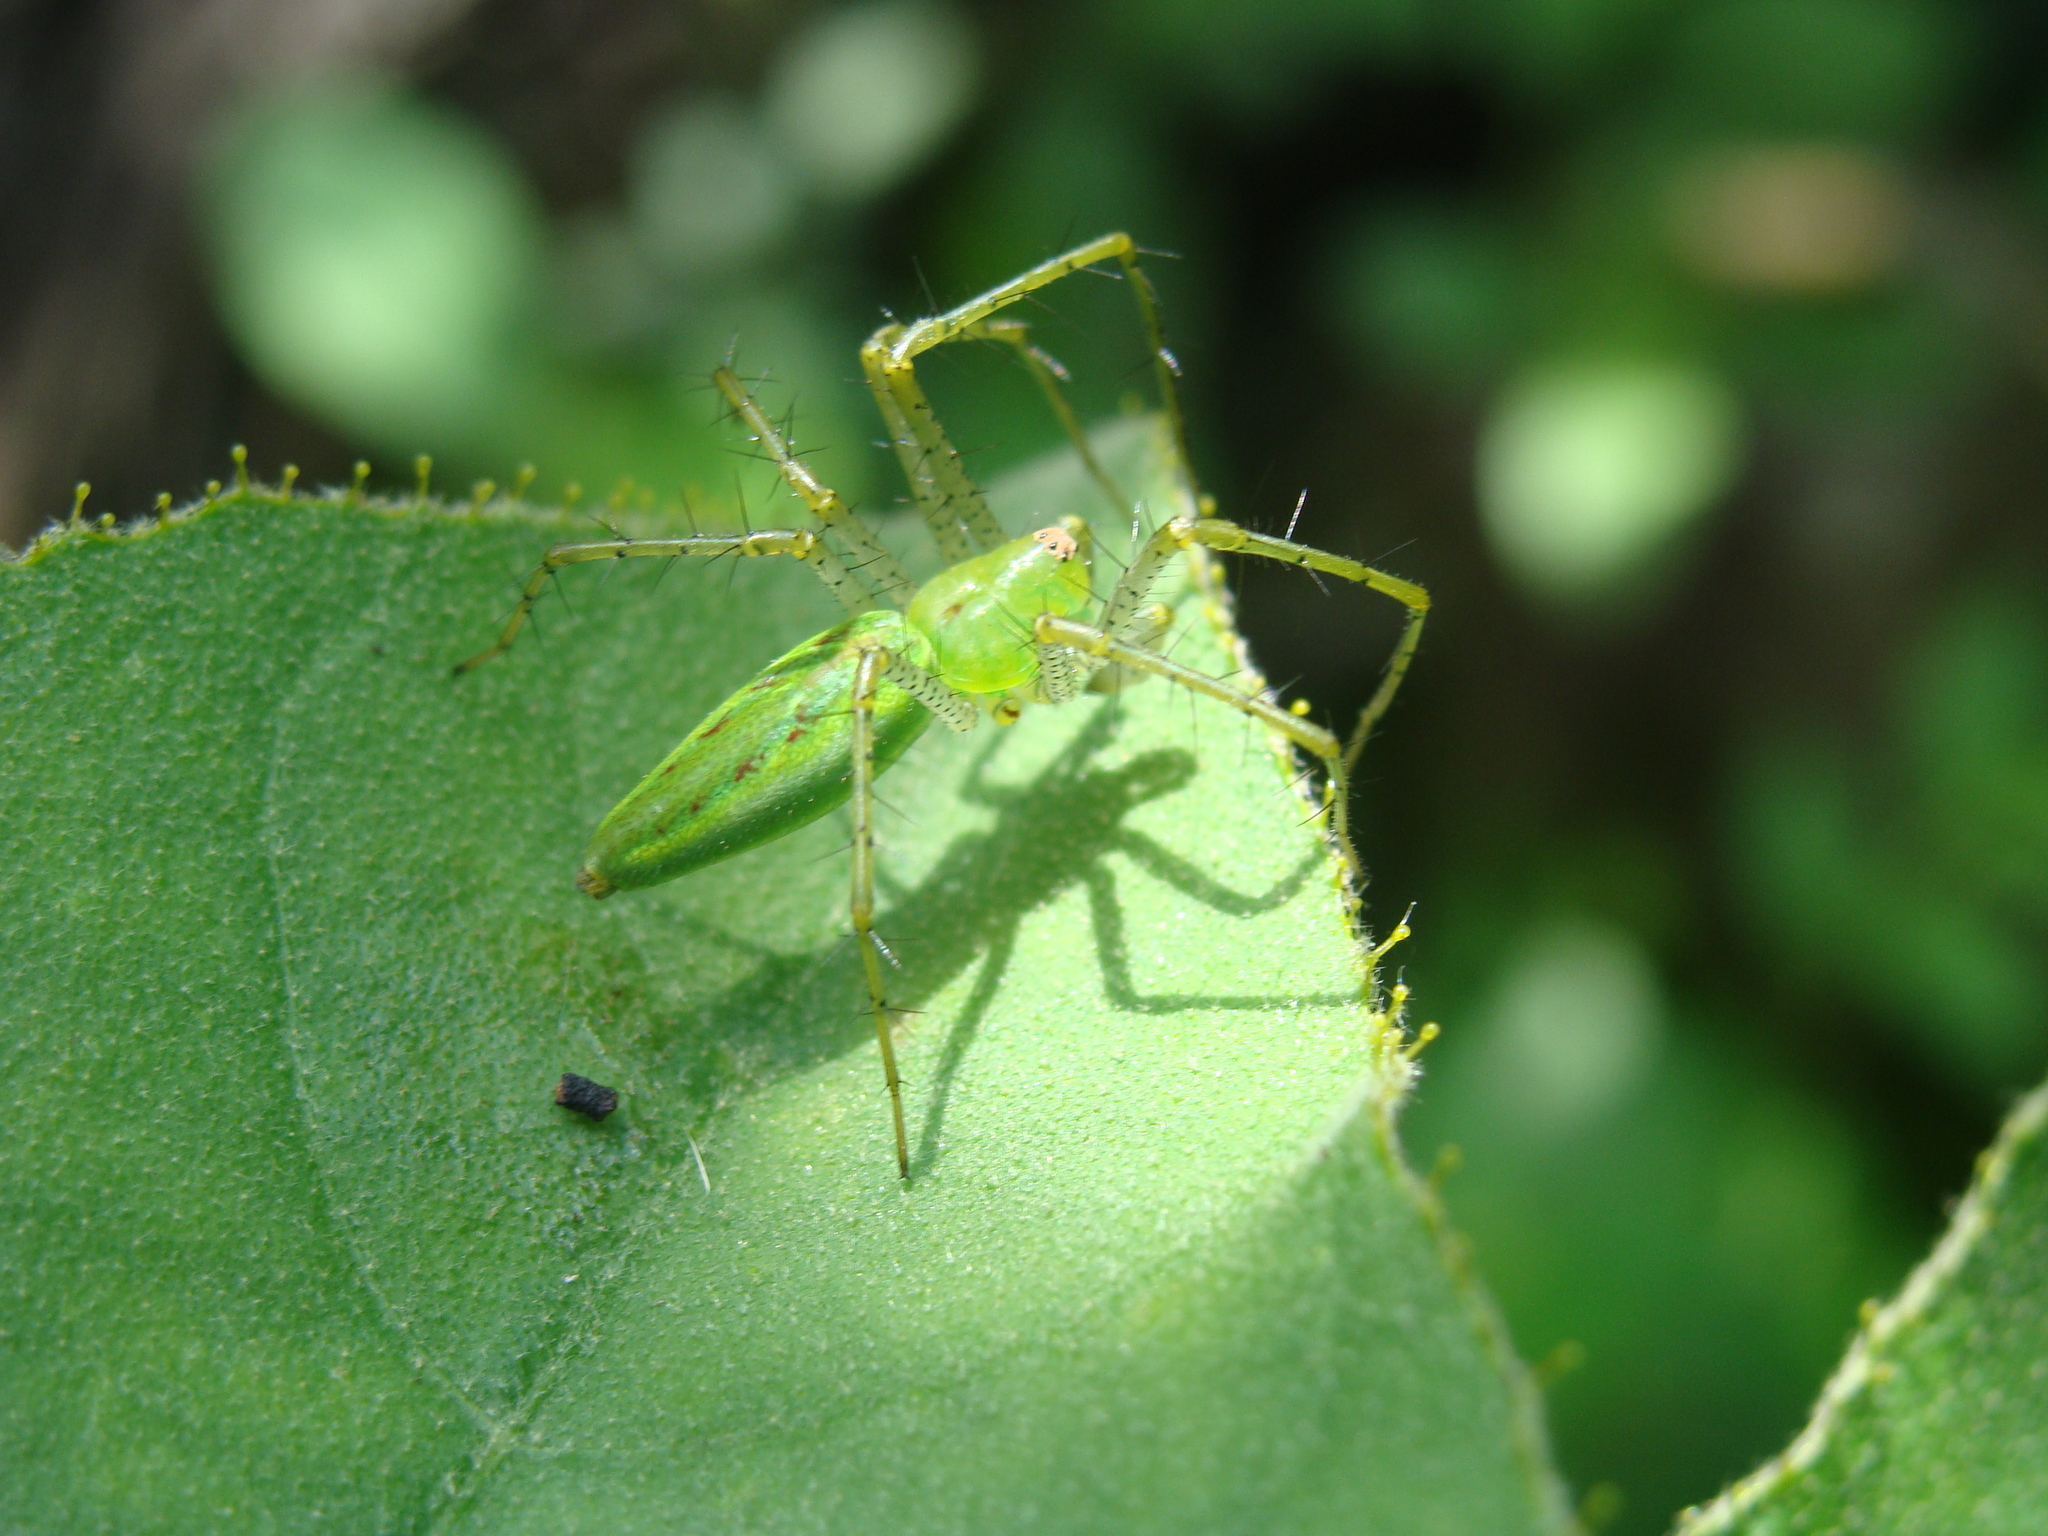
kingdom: Animalia
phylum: Arthropoda
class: Arachnida
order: Araneae
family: Oxyopidae
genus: Peucetia
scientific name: Peucetia viridans
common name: Lynx spiders
